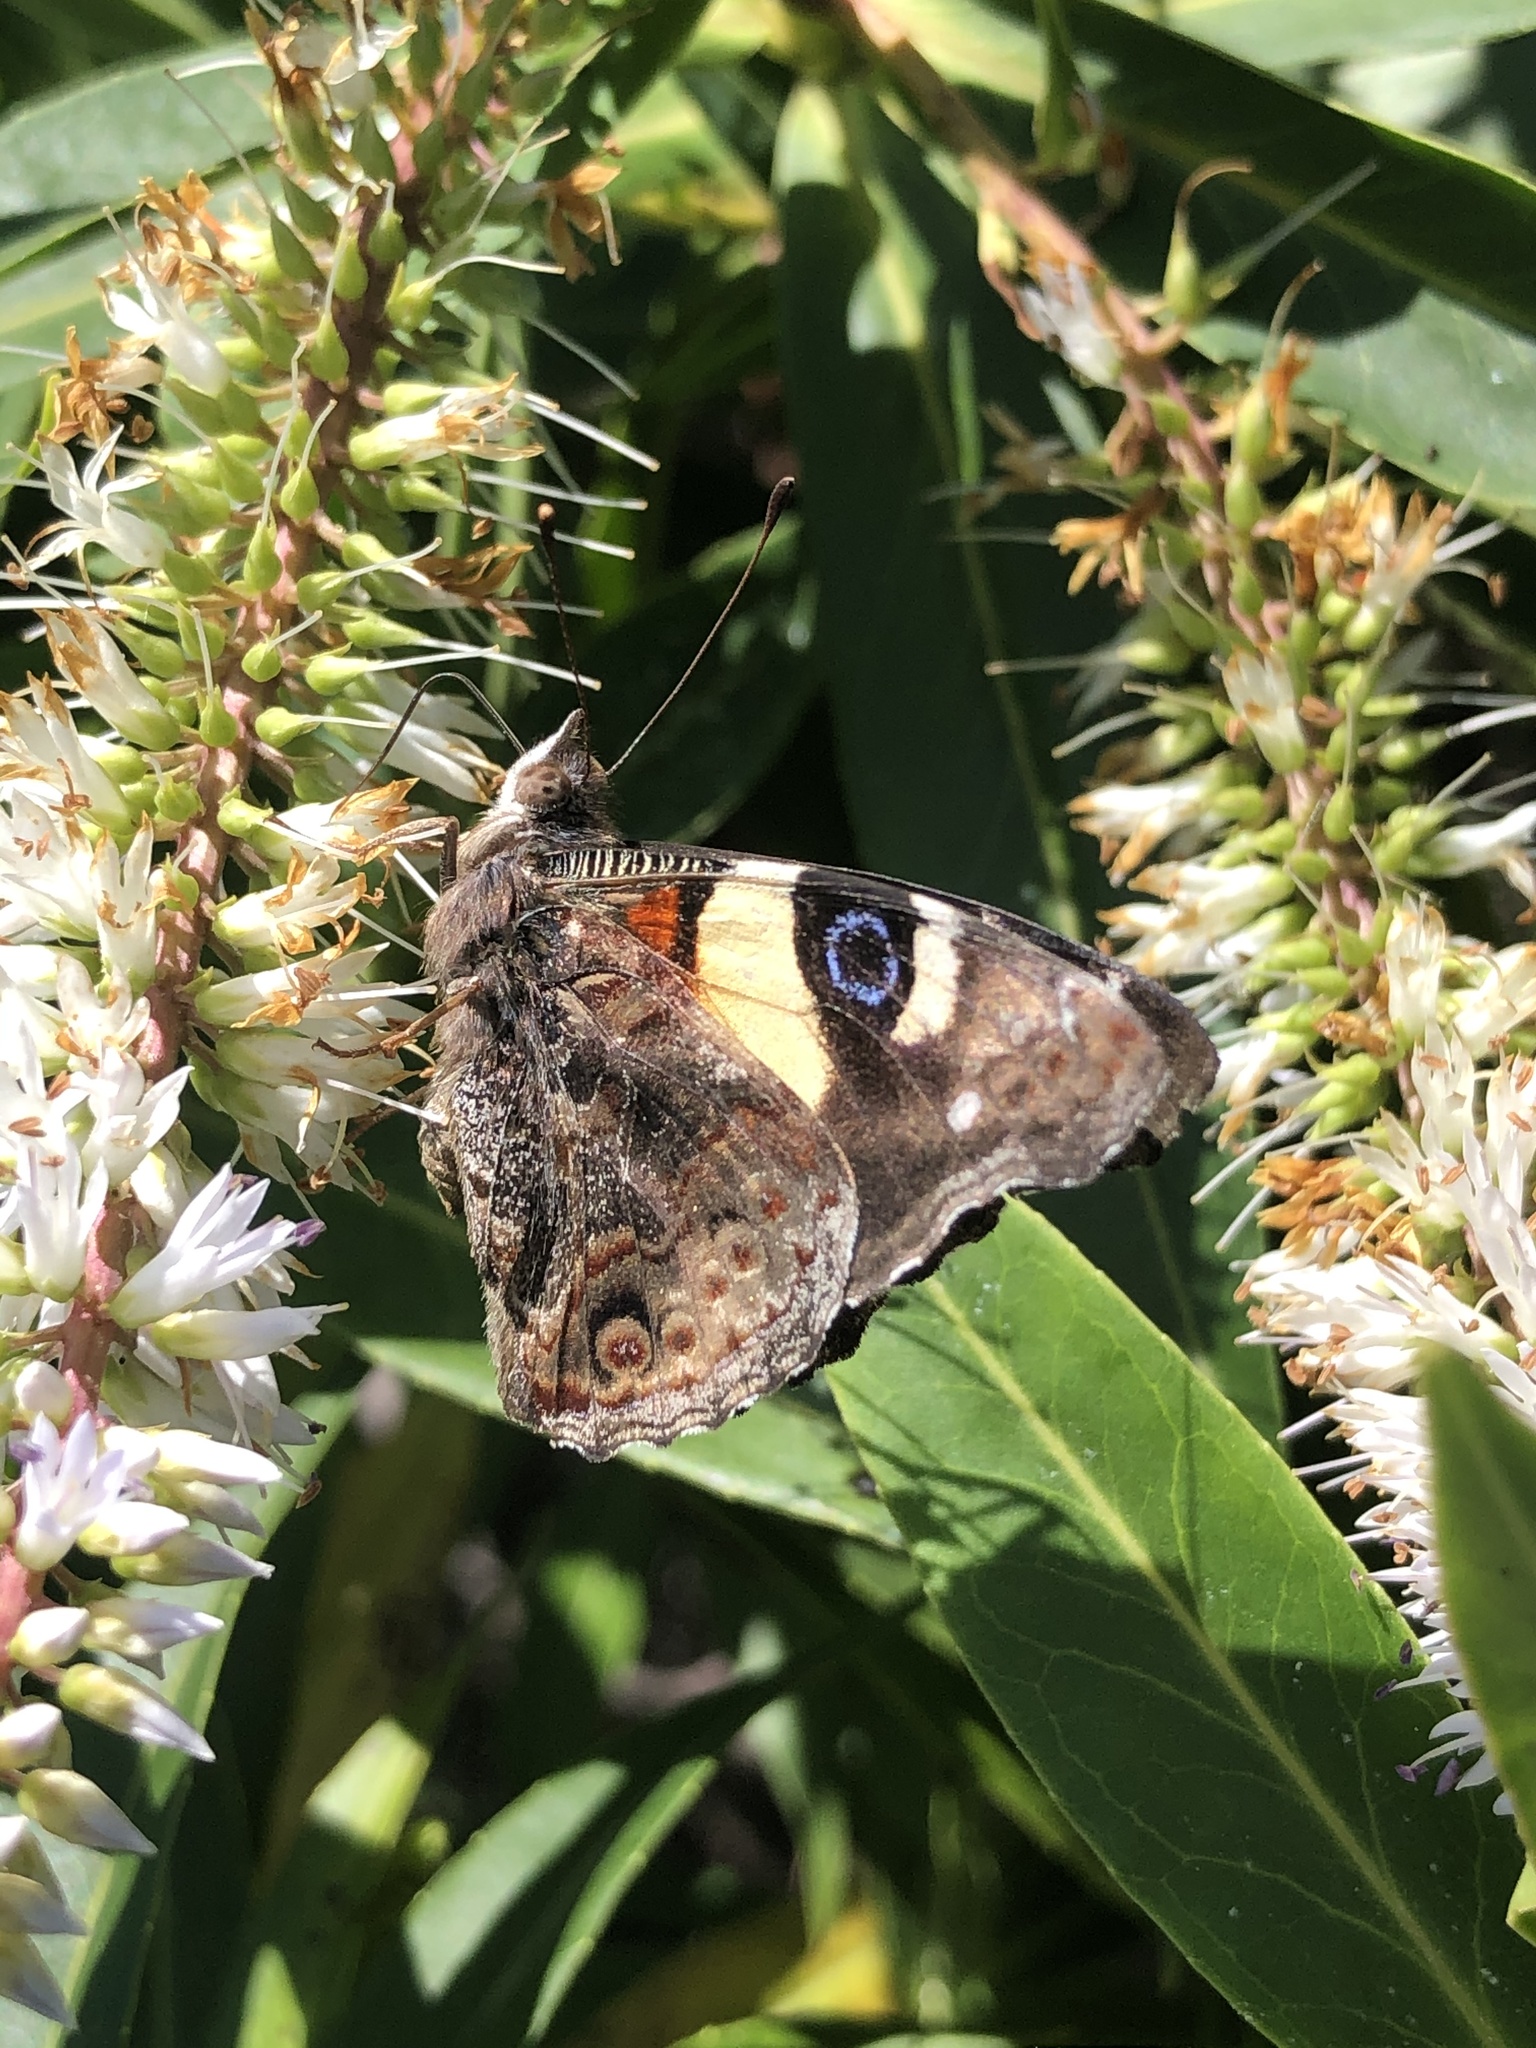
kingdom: Animalia
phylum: Arthropoda
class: Insecta
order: Lepidoptera
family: Nymphalidae
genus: Vanessa
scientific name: Vanessa itea
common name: Yellow admiral
